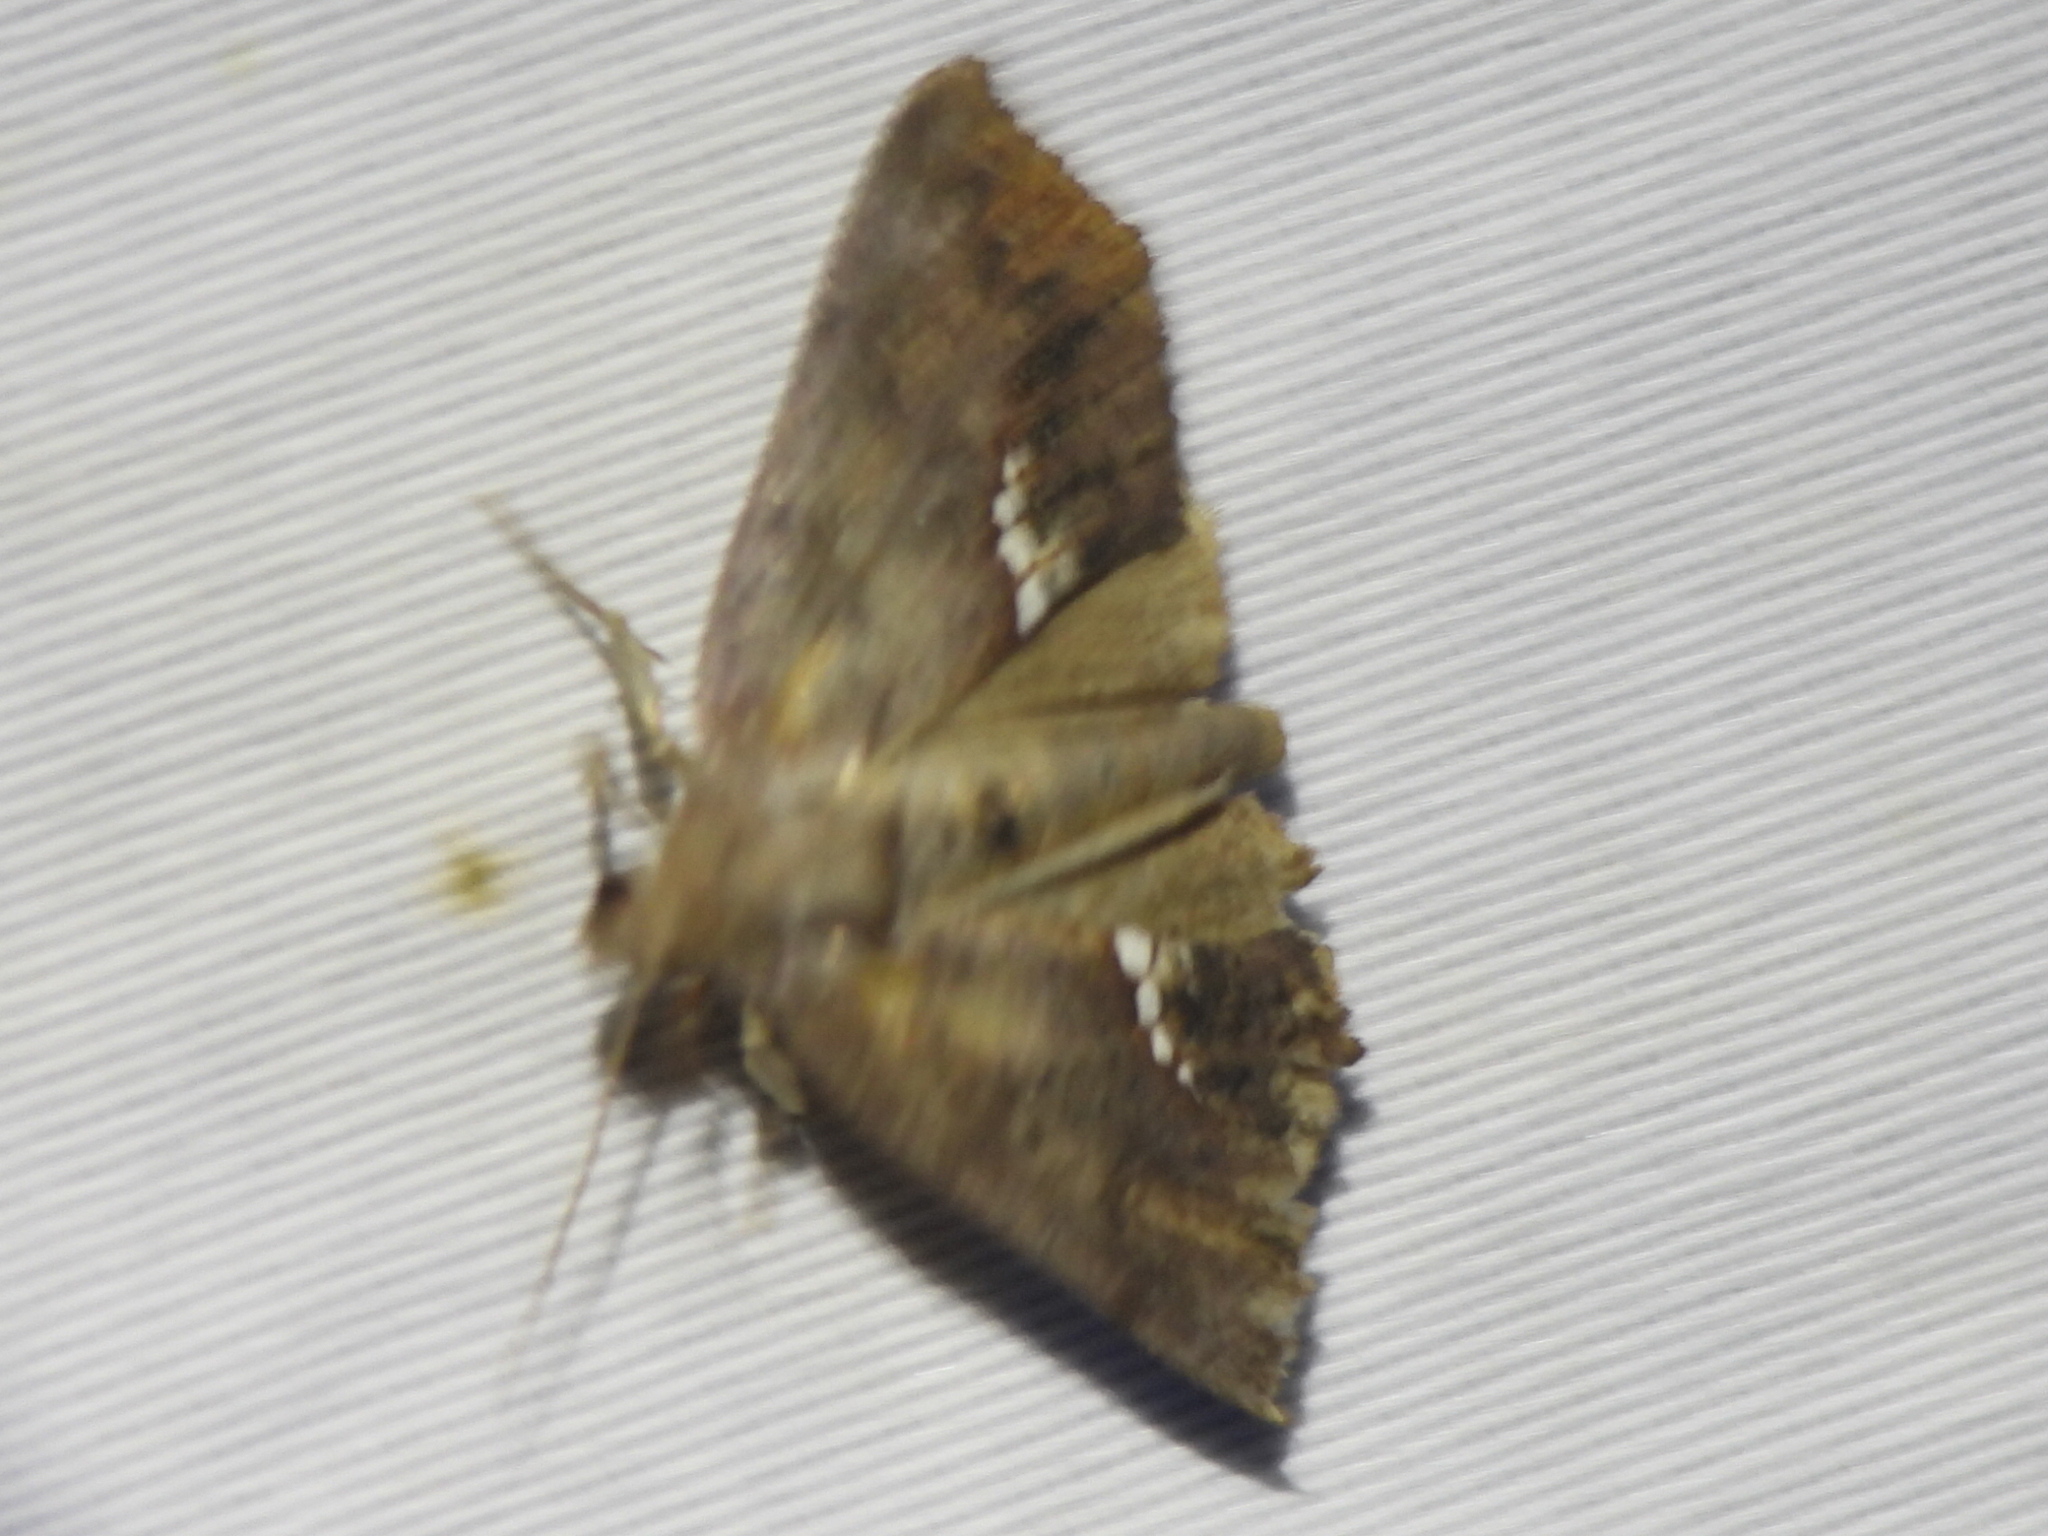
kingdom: Animalia
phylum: Arthropoda
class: Insecta
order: Lepidoptera
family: Erebidae
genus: Hypsoropha
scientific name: Hypsoropha hormos
